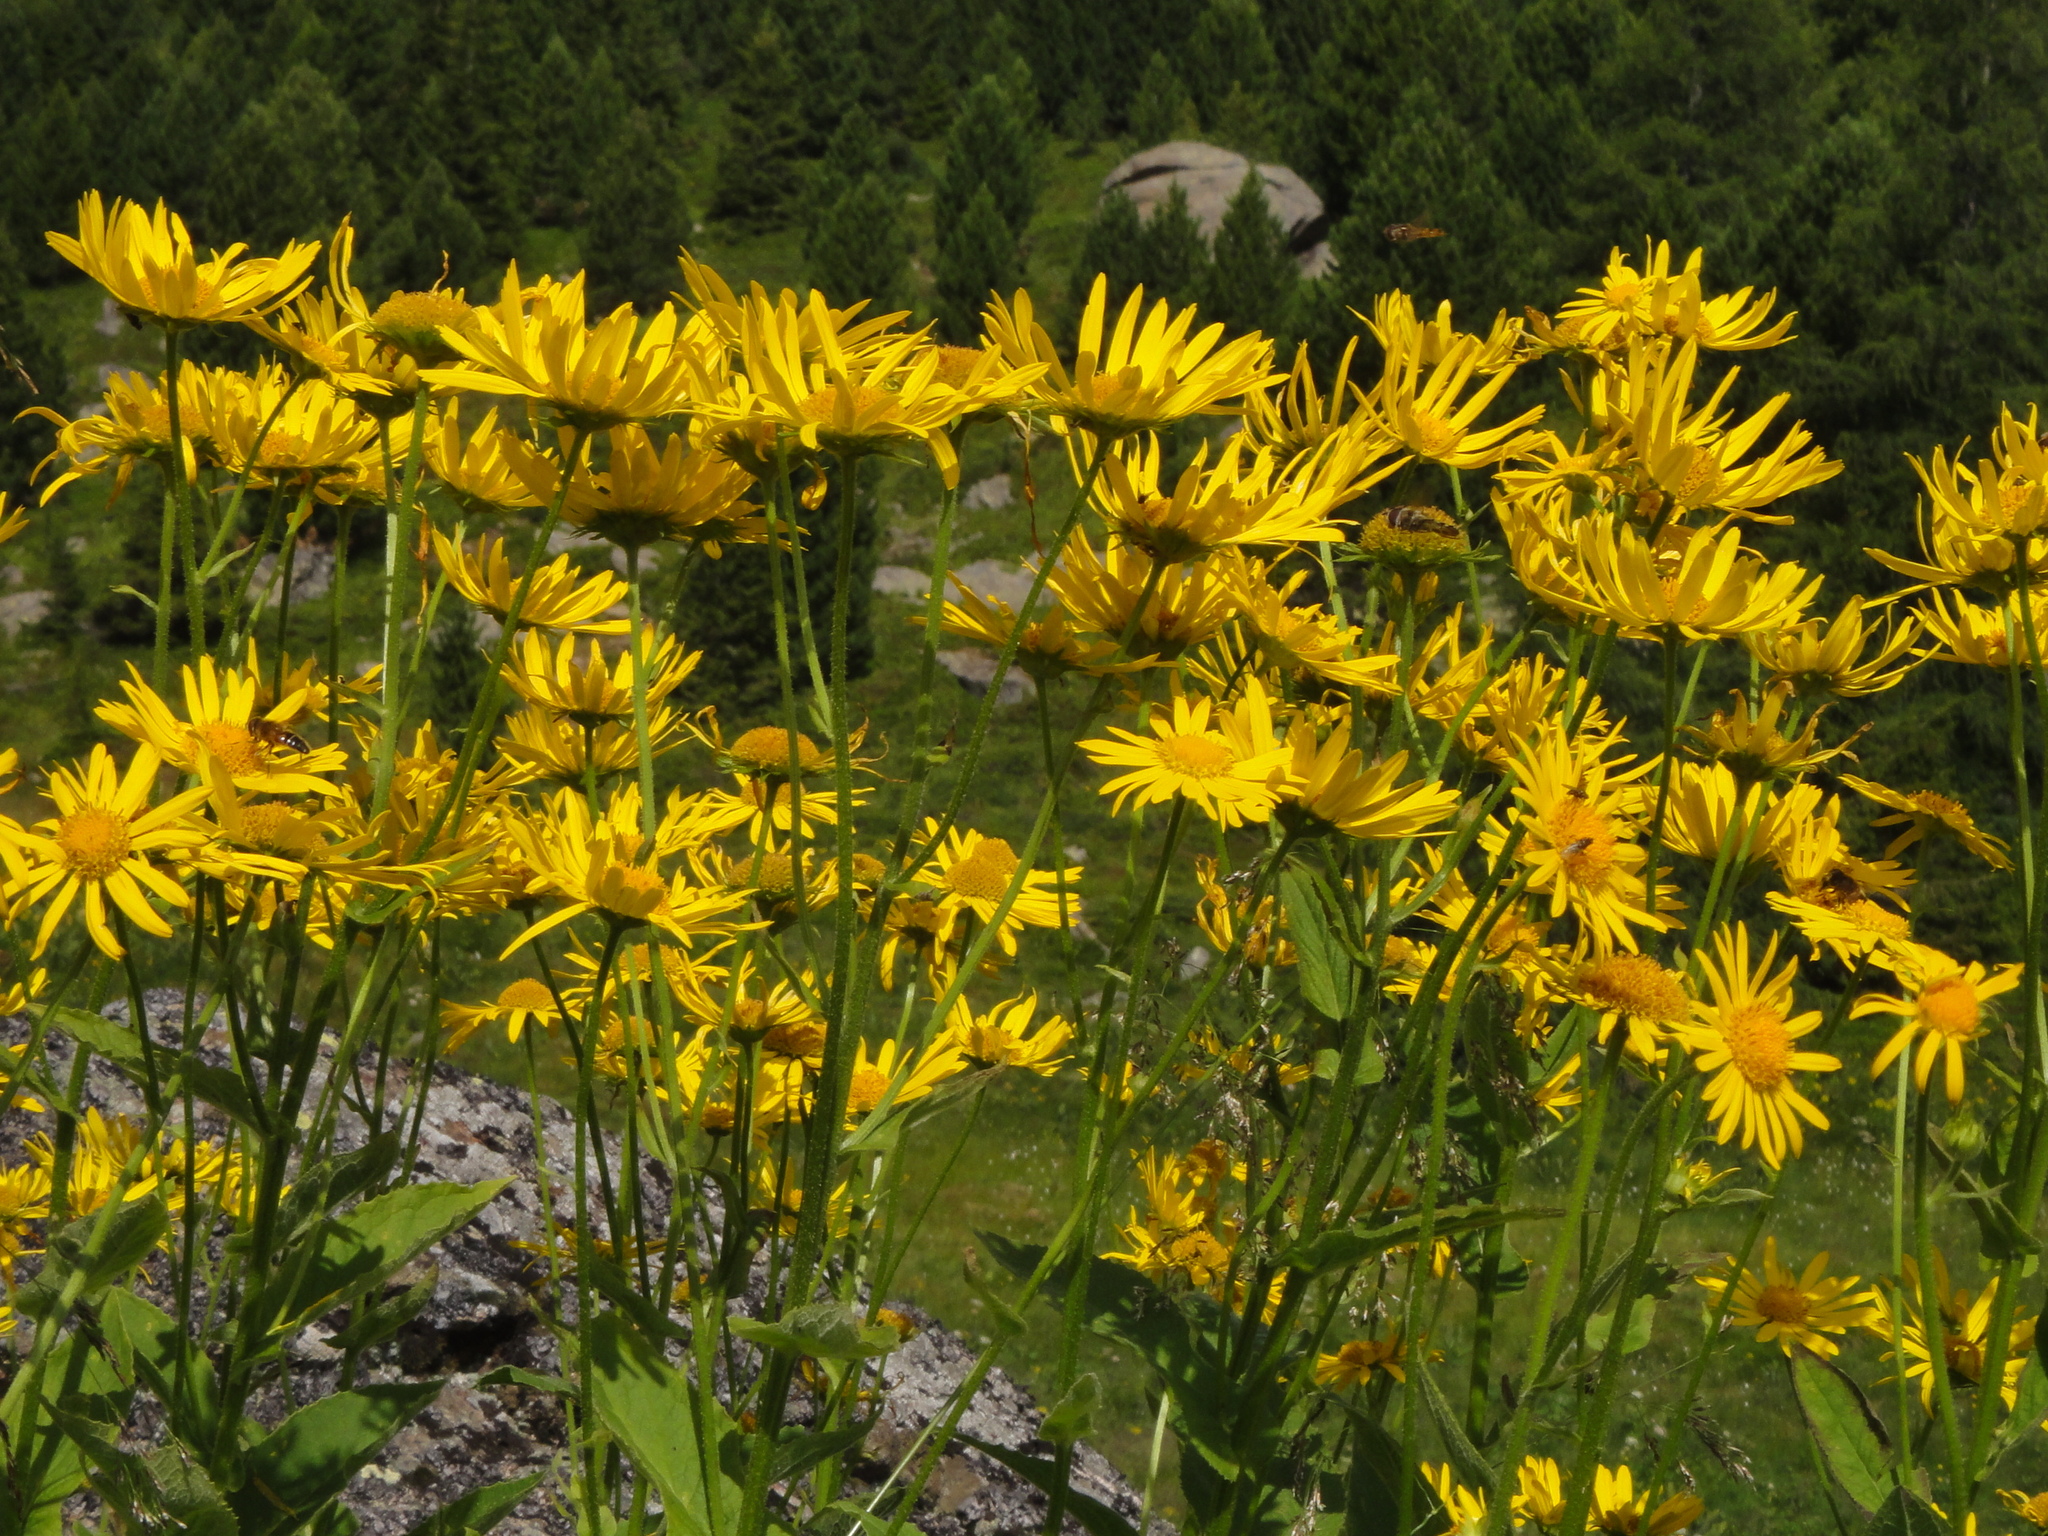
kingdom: Plantae
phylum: Tracheophyta
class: Magnoliopsida
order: Asterales
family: Asteraceae
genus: Doronicum
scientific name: Doronicum austriacum
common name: Austrian leopard's-bane
